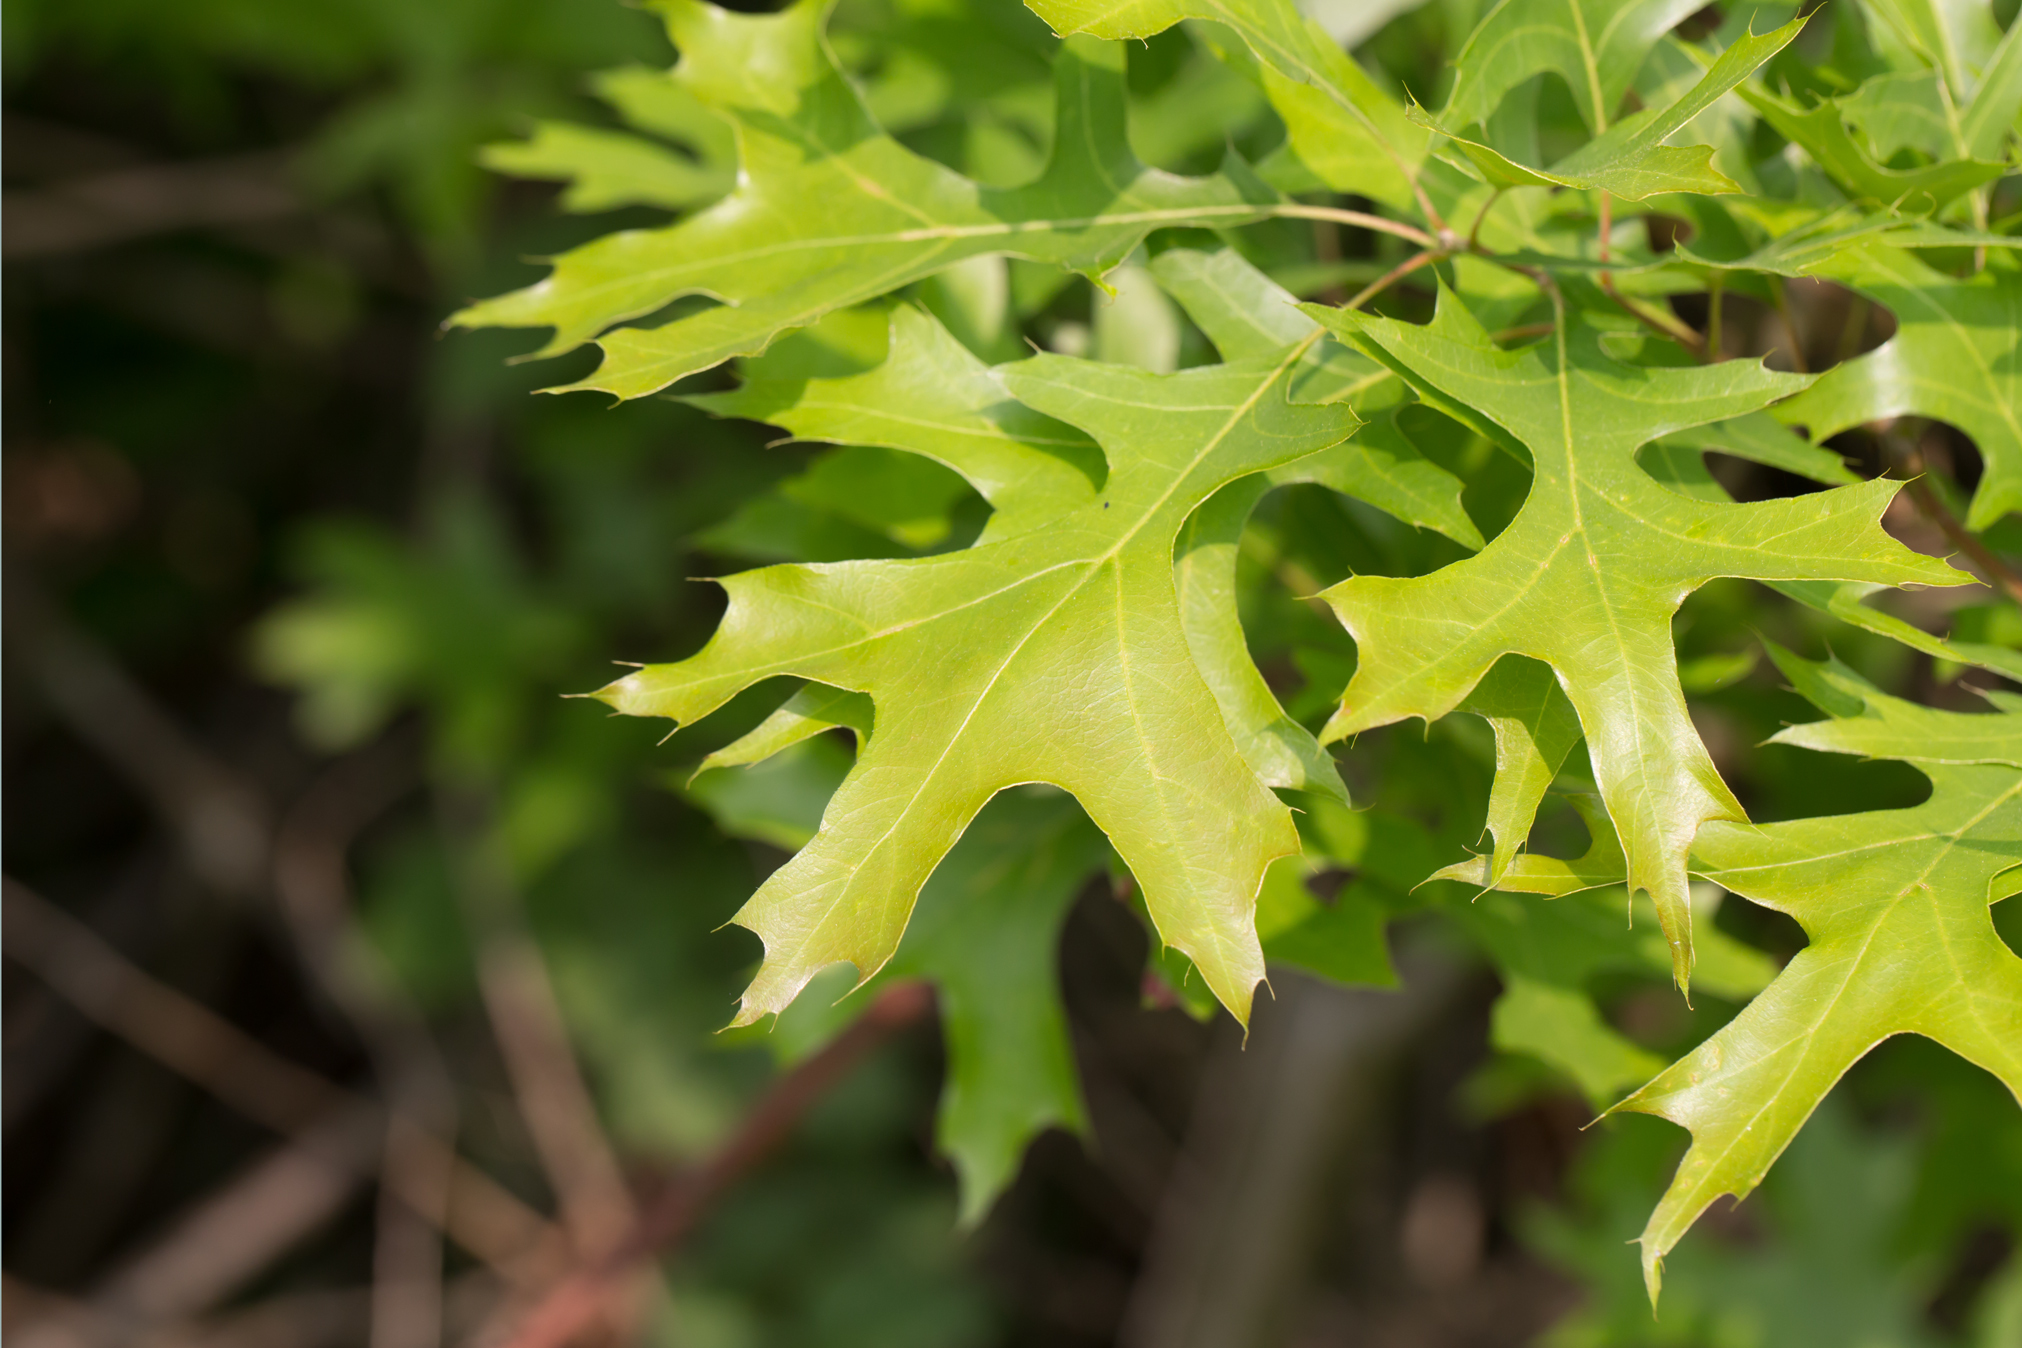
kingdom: Plantae
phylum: Tracheophyta
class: Magnoliopsida
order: Fagales
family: Fagaceae
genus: Quercus
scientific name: Quercus palustris
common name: Pin oak
